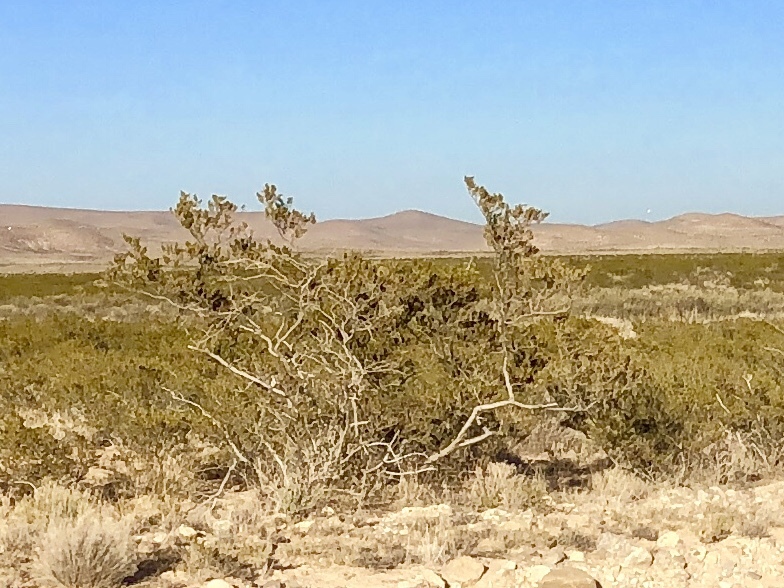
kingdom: Plantae
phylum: Tracheophyta
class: Magnoliopsida
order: Zygophyllales
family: Zygophyllaceae
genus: Larrea
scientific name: Larrea tridentata
